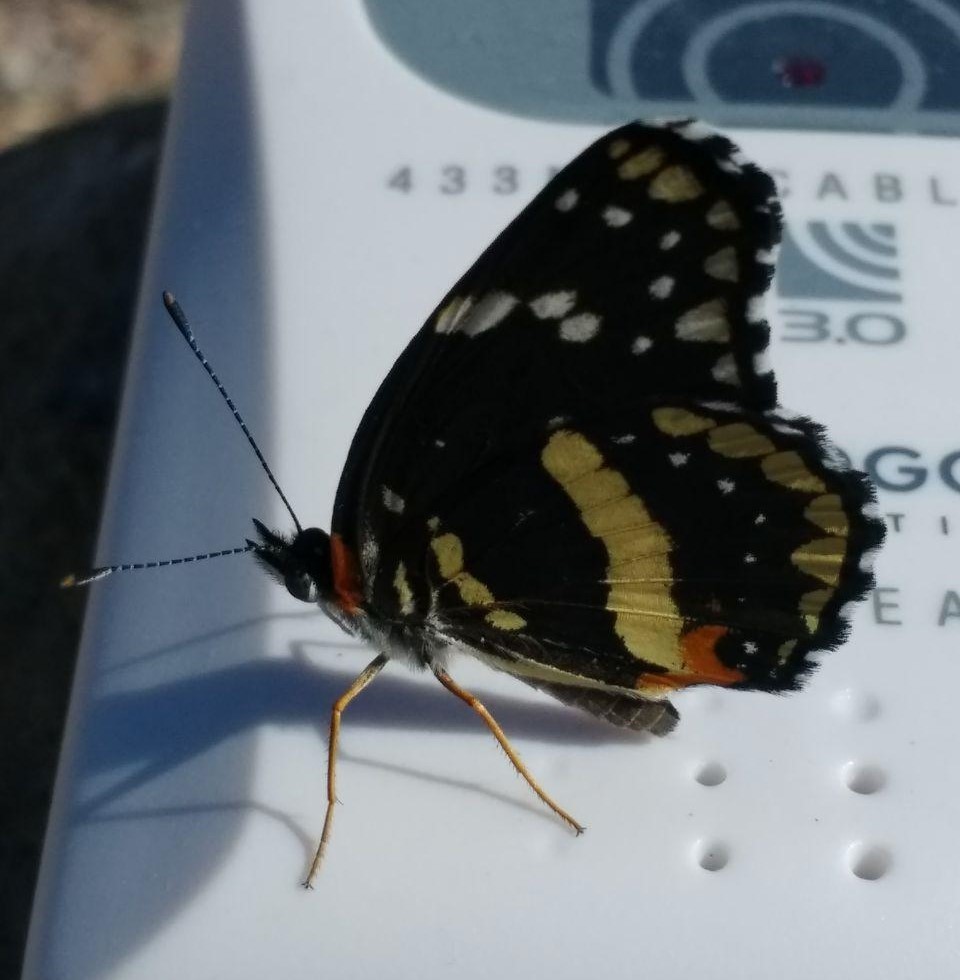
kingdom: Animalia
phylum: Arthropoda
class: Insecta
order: Lepidoptera
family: Nymphalidae
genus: Chlosyne
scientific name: Chlosyne lacinia
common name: Bordered patch
